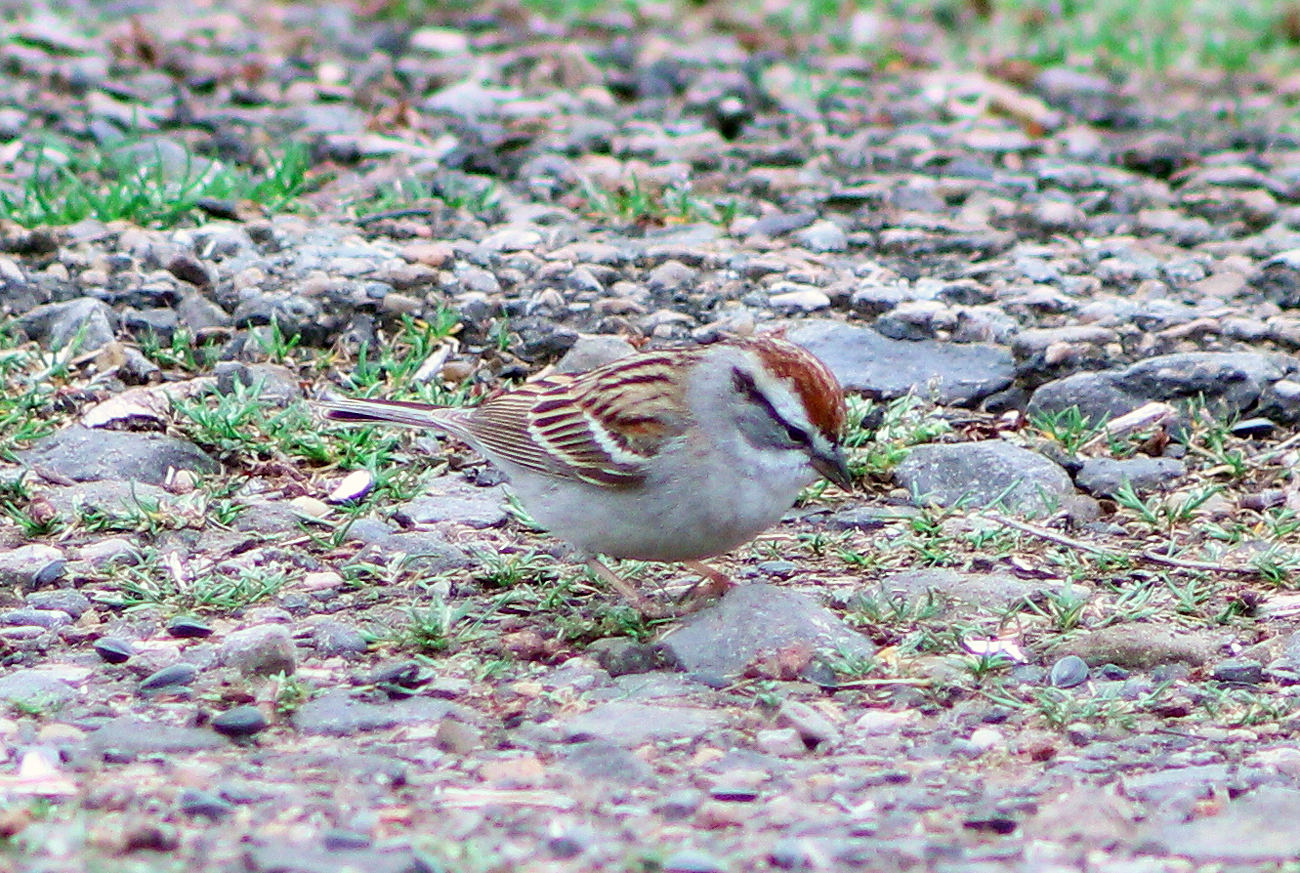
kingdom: Animalia
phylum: Chordata
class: Aves
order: Passeriformes
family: Passerellidae
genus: Spizella
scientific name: Spizella passerina
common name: Chipping sparrow
